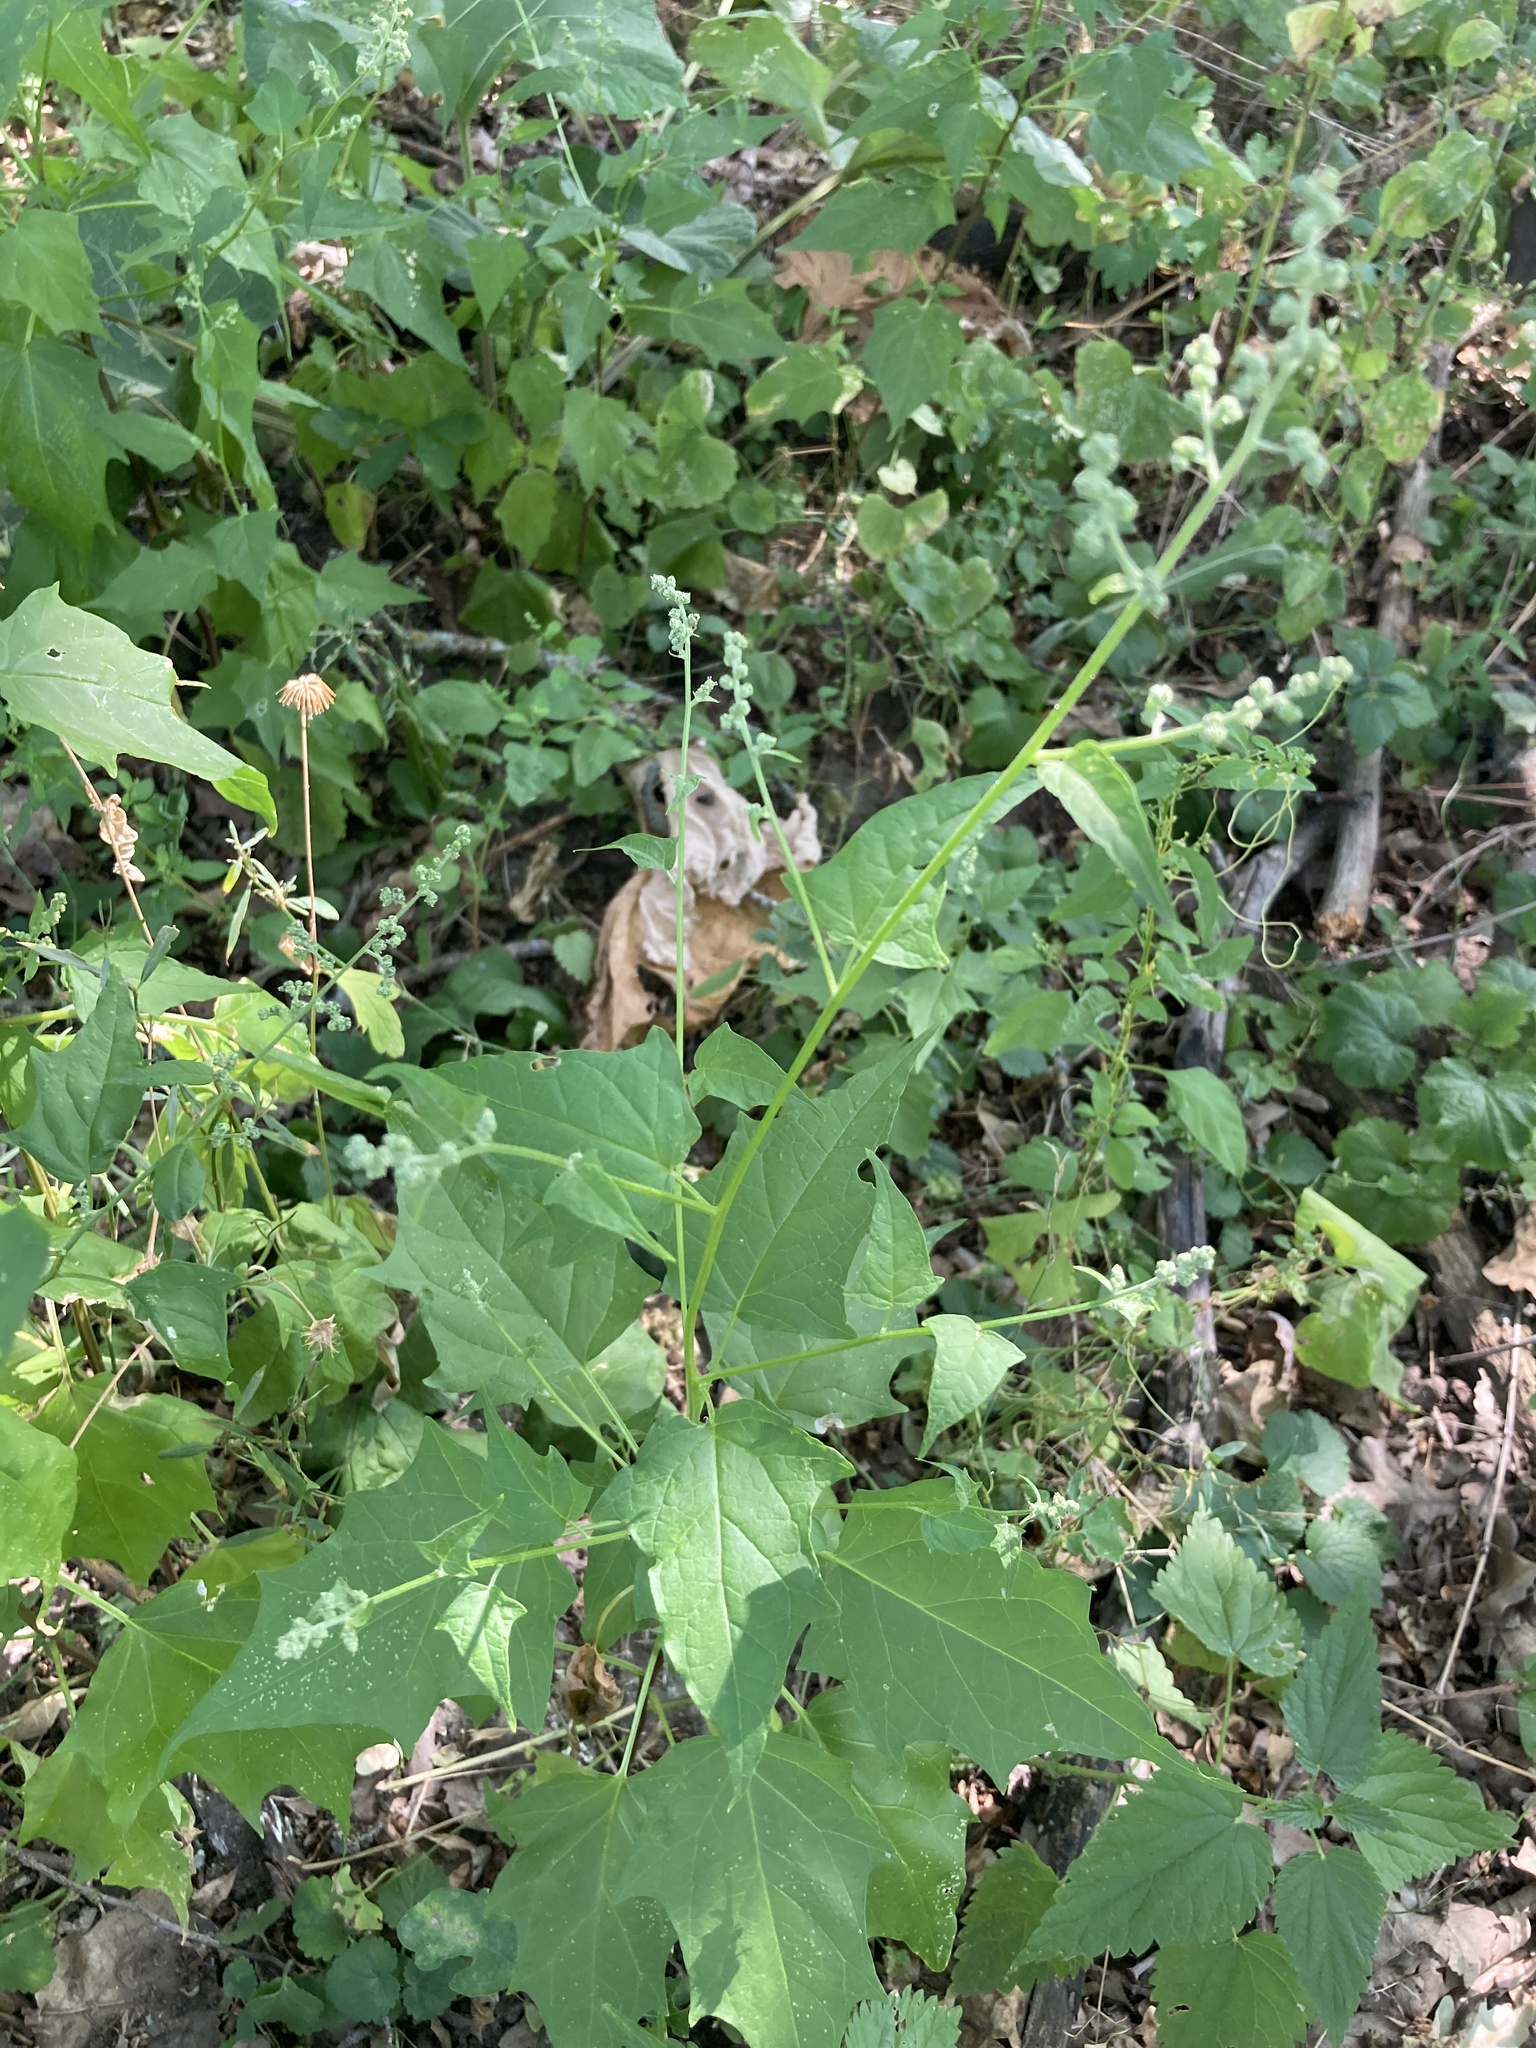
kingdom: Plantae
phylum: Tracheophyta
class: Magnoliopsida
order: Caryophyllales
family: Amaranthaceae
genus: Chenopodiastrum
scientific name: Chenopodiastrum hybridum
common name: Mapleleaf goosefoot
